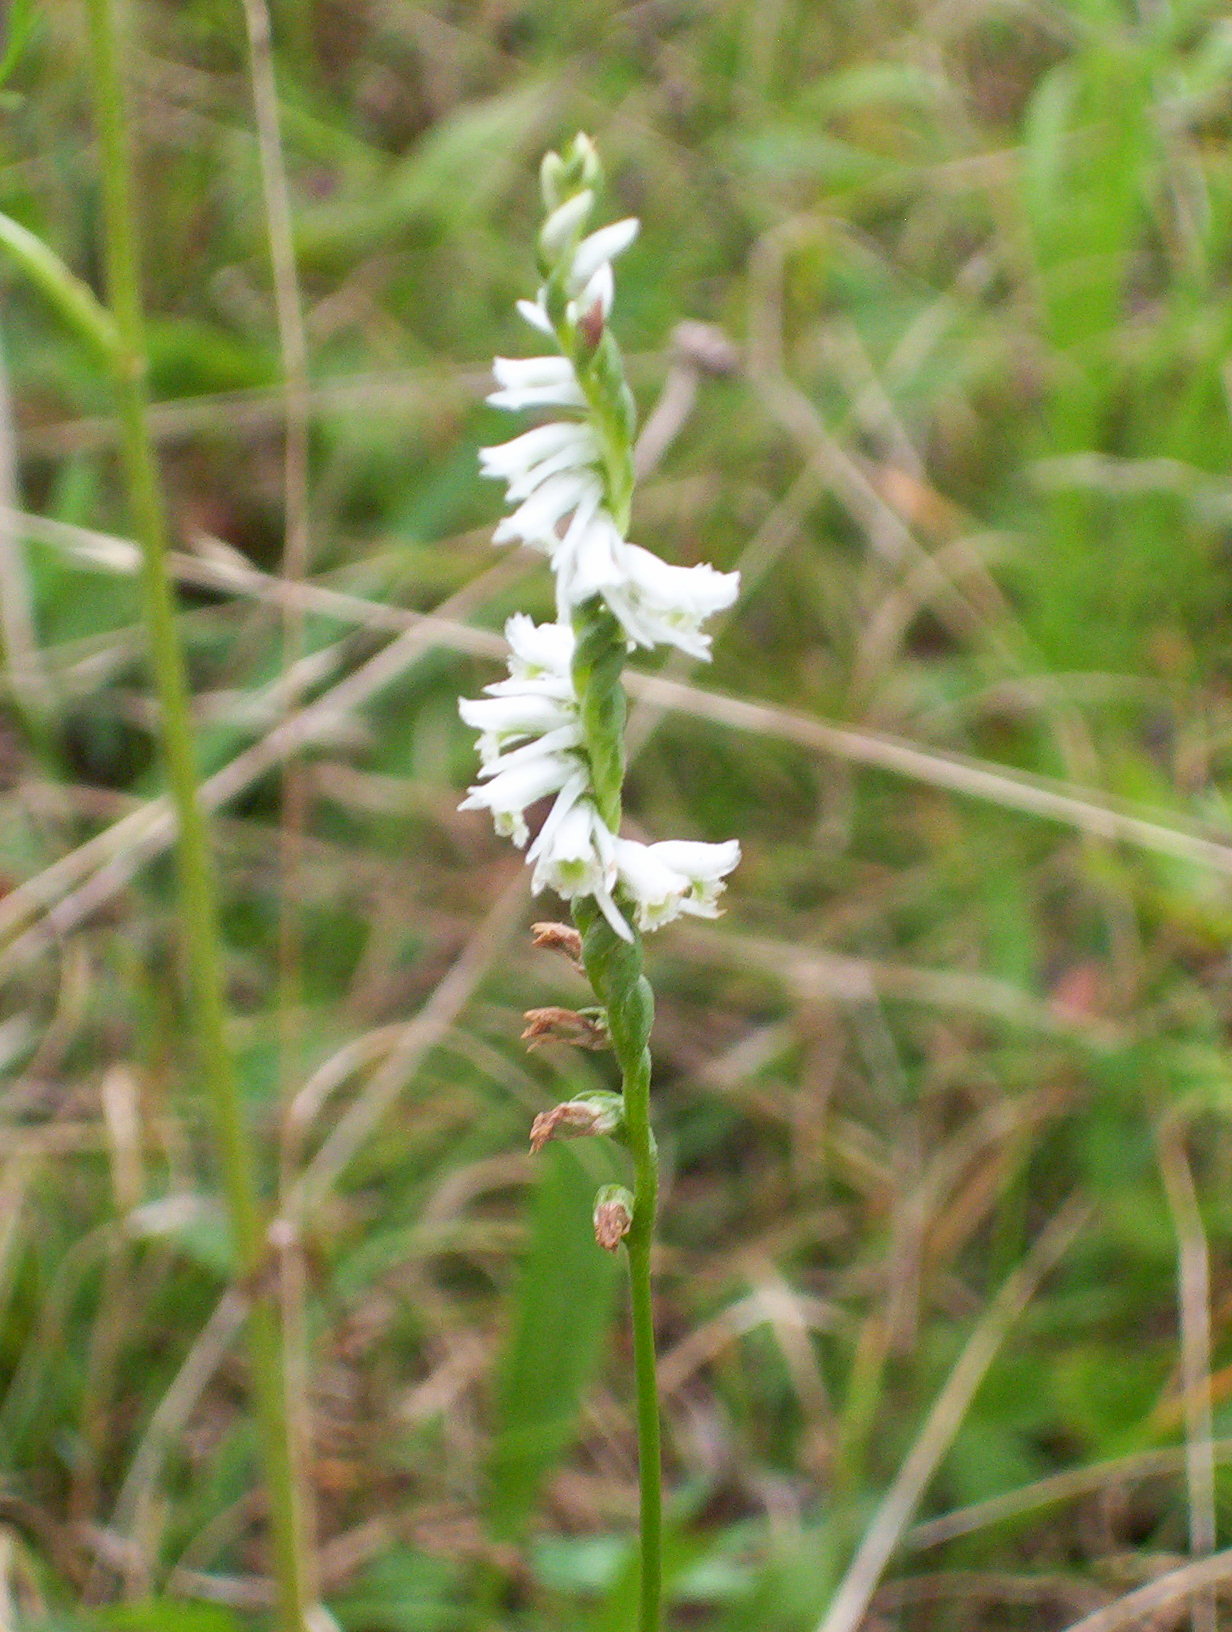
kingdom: Plantae
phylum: Tracheophyta
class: Liliopsida
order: Asparagales
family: Orchidaceae
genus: Spiranthes
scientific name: Spiranthes lacera
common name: Northern slender ladies'-tresses
